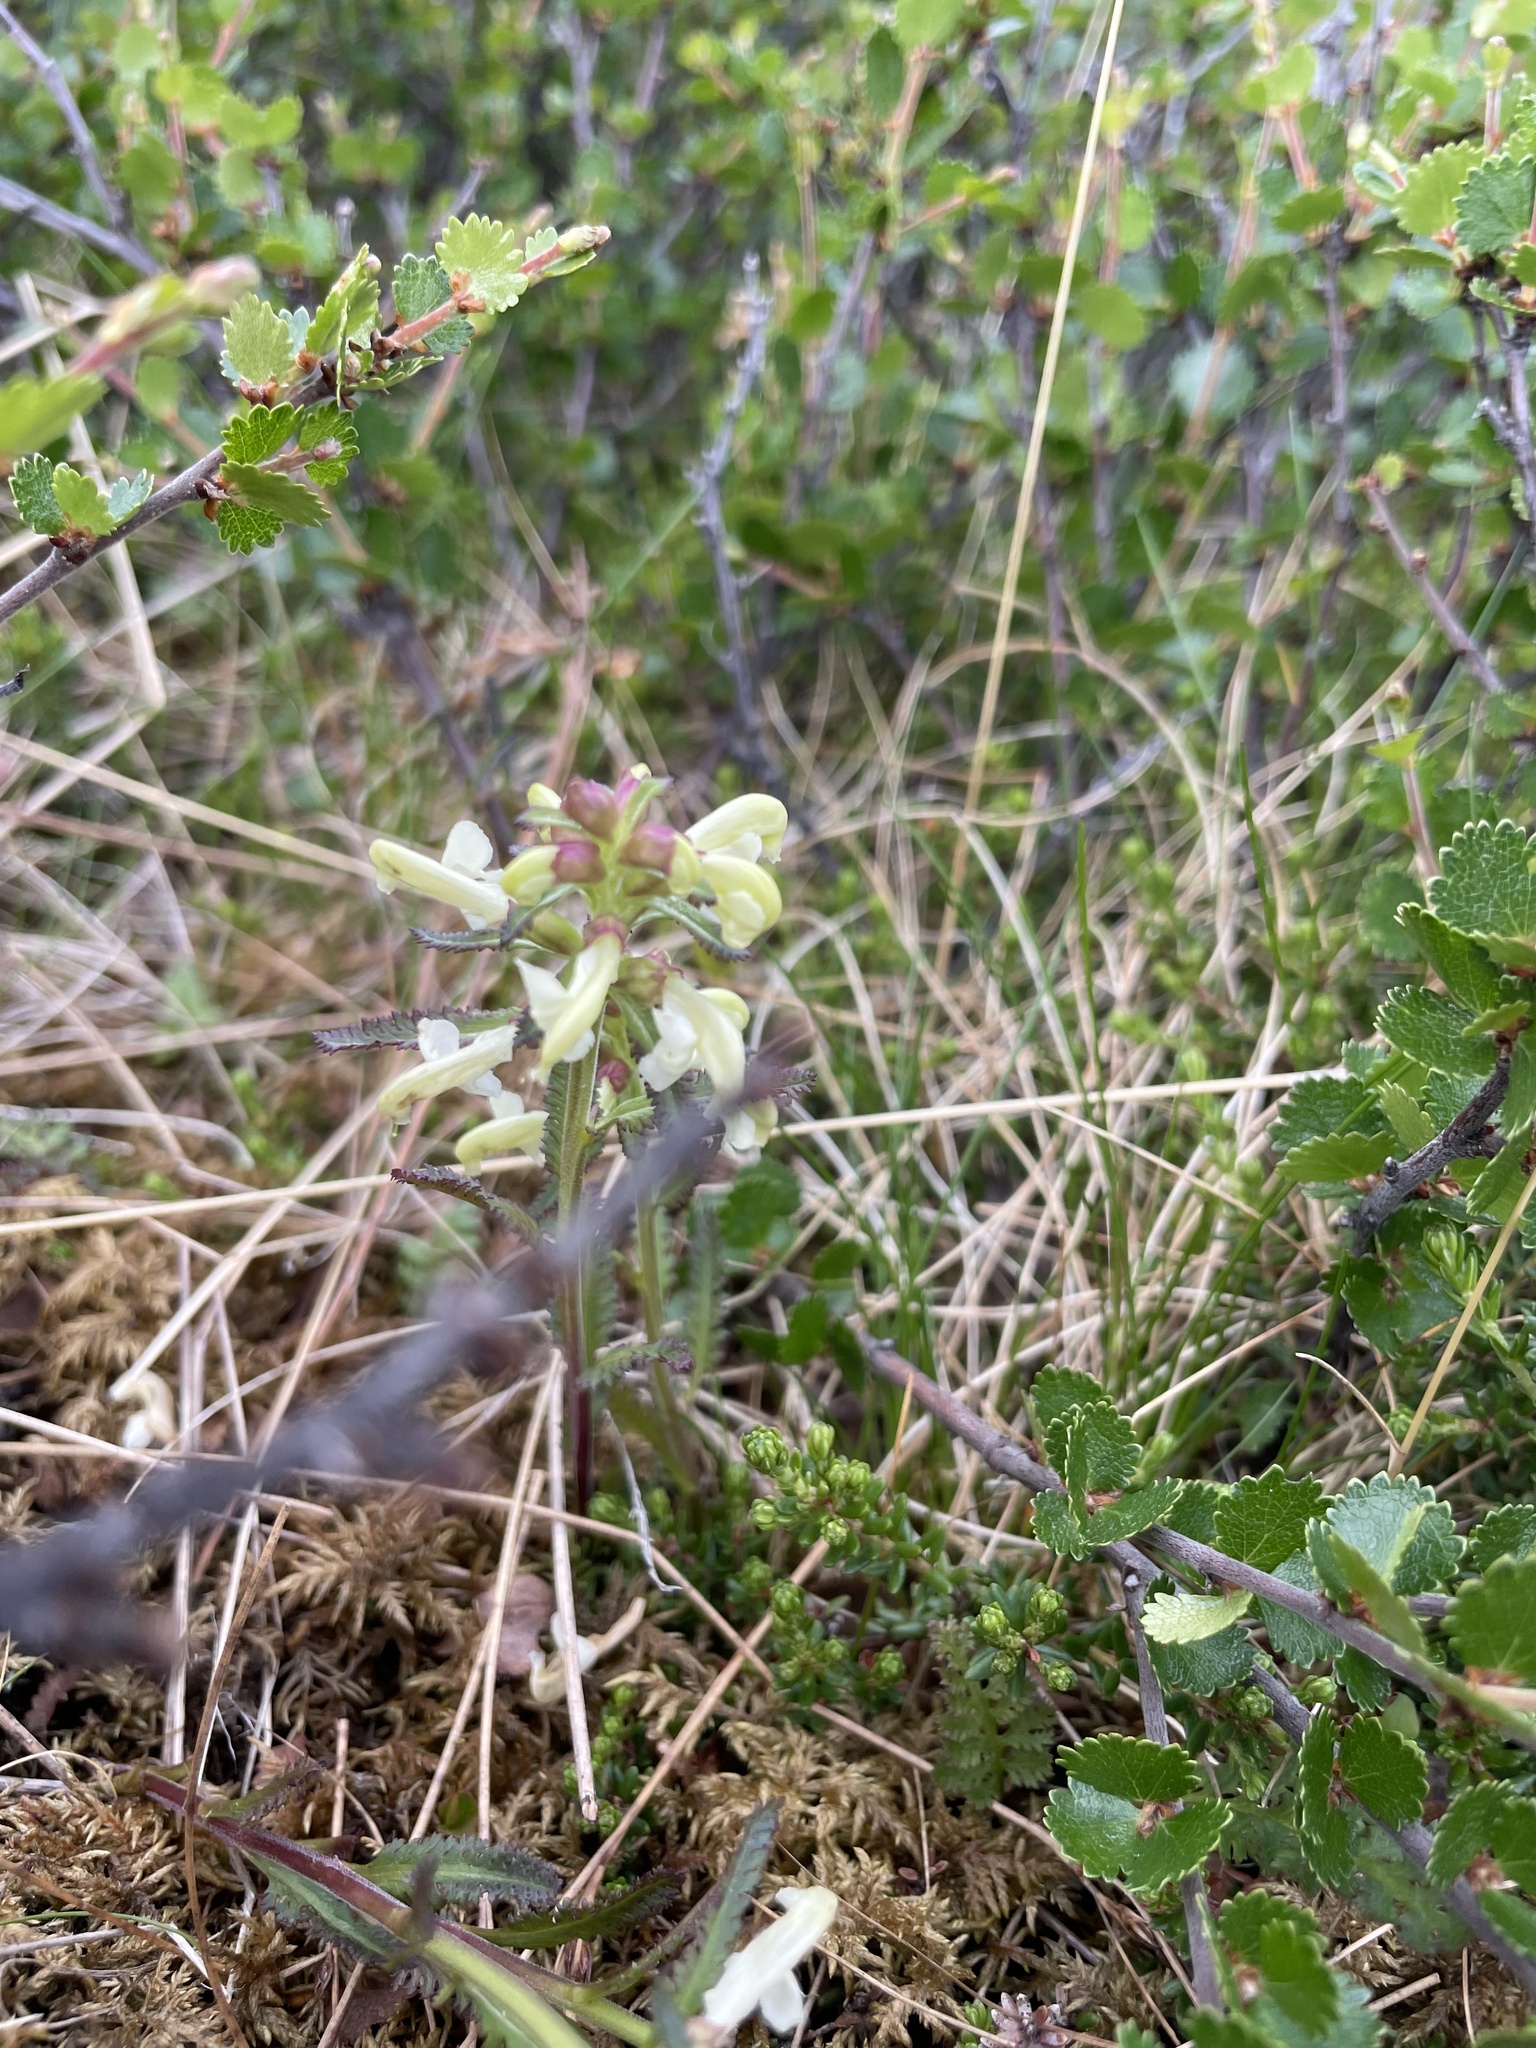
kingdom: Plantae
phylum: Tracheophyta
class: Magnoliopsida
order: Lamiales
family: Orobanchaceae
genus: Pedicularis
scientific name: Pedicularis lapponica
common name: Lapland lousewort
